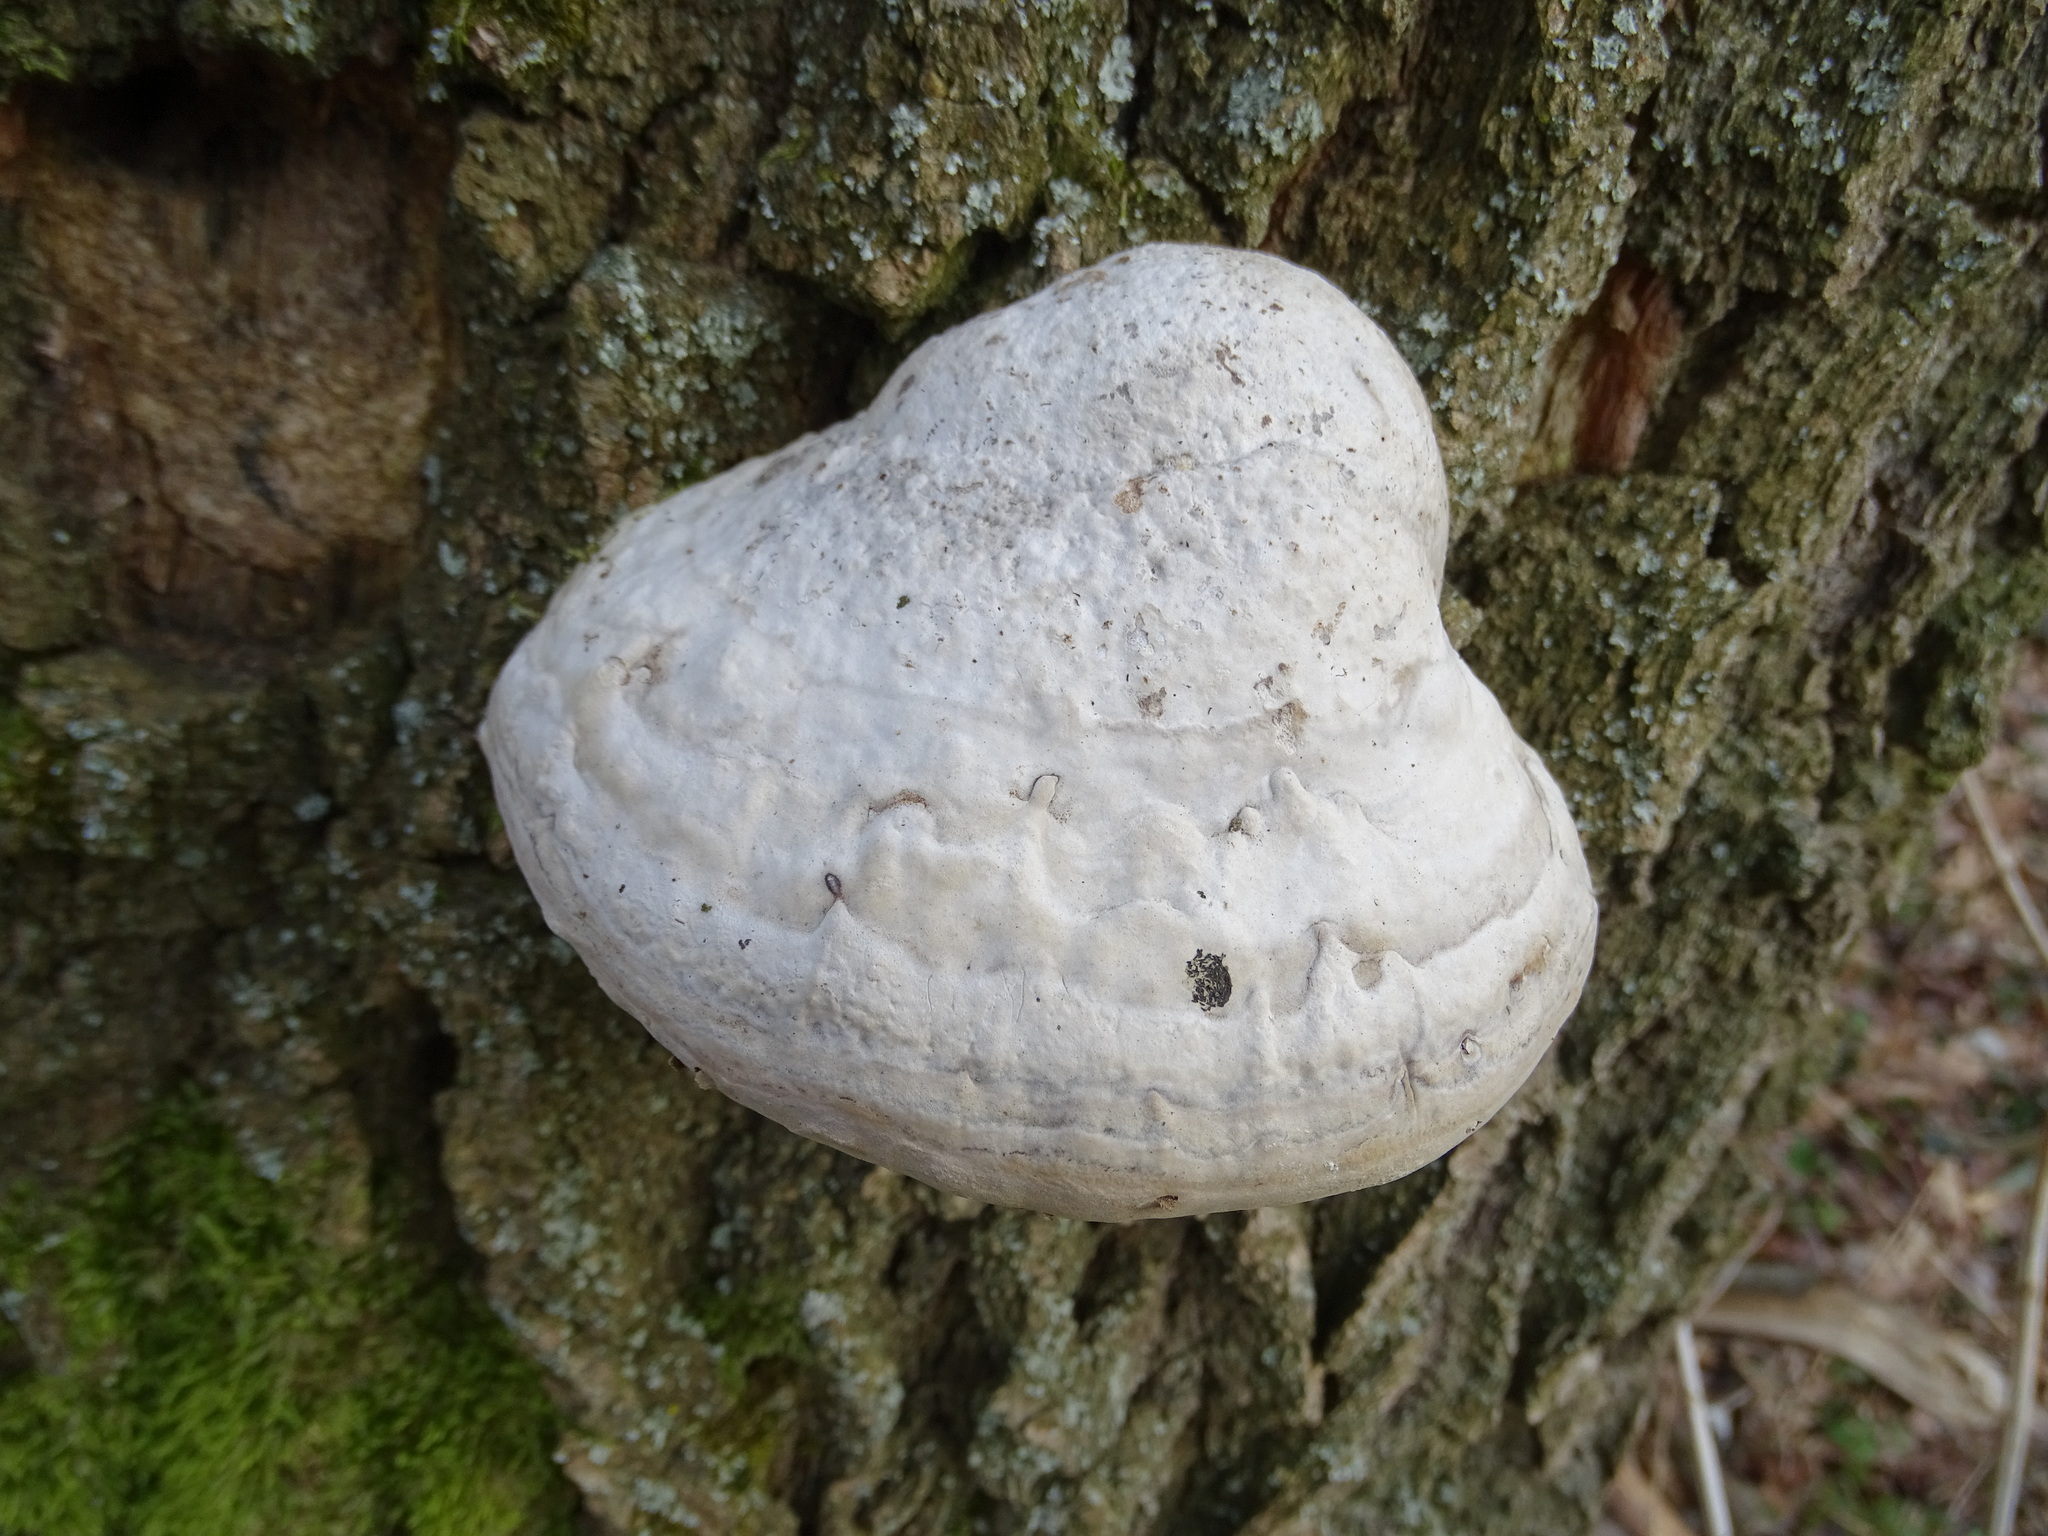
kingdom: Fungi
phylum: Basidiomycota
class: Agaricomycetes
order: Polyporales
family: Polyporaceae
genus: Fomes
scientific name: Fomes fomentarius
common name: Hoof fungus
